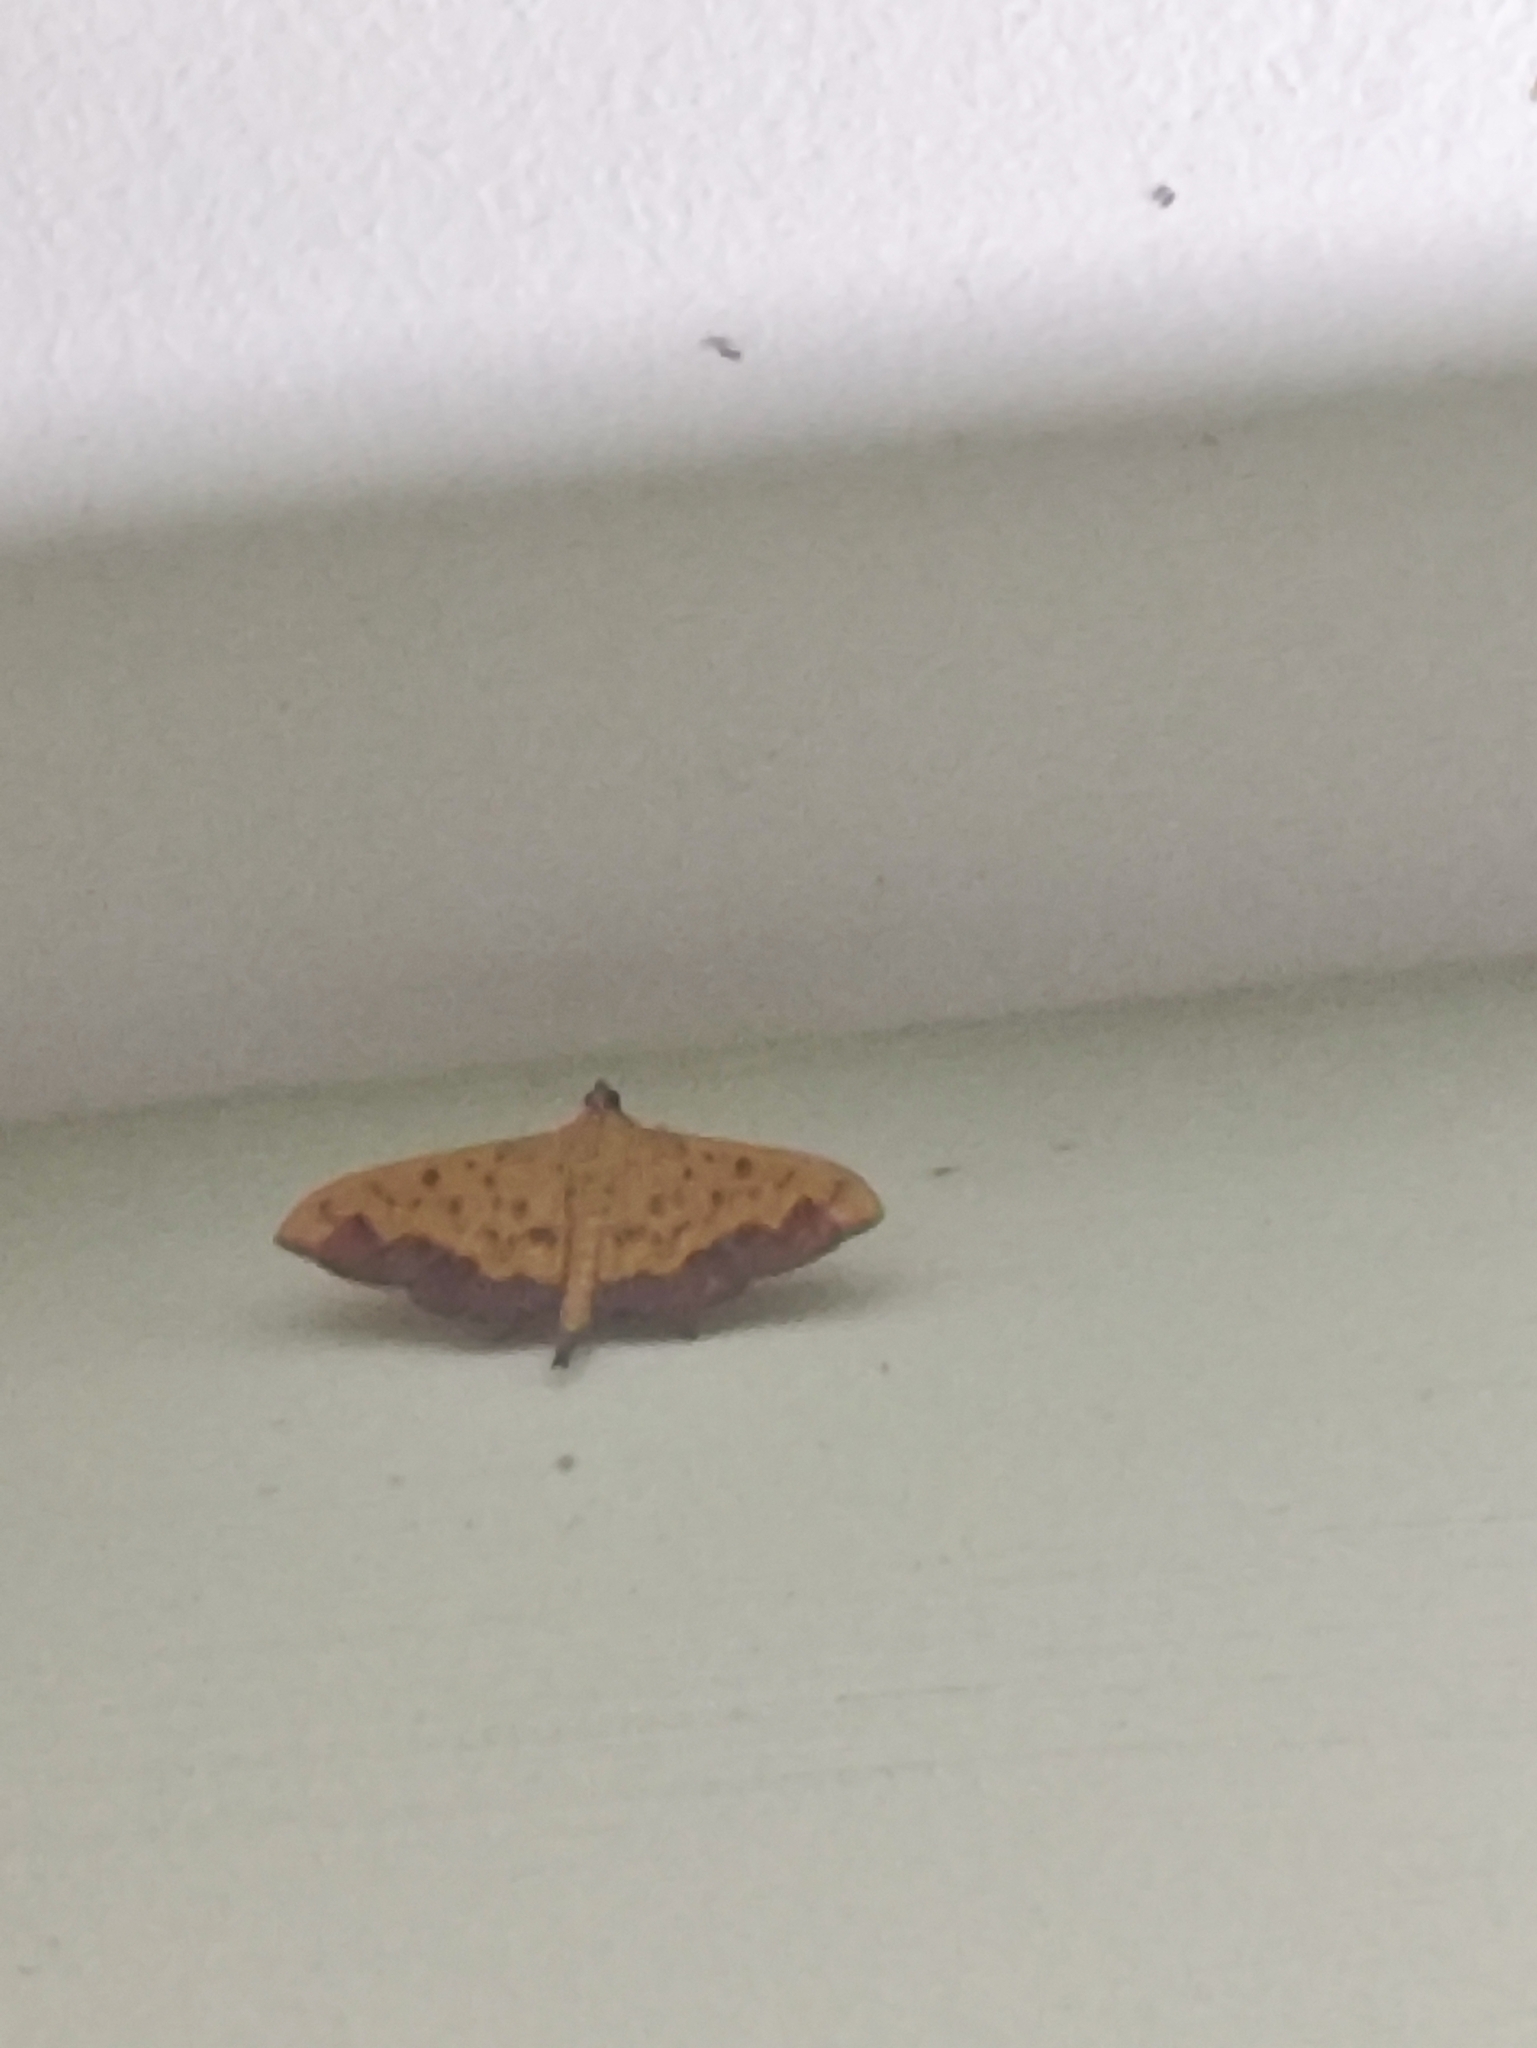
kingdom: Animalia
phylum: Arthropoda
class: Insecta
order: Lepidoptera
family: Crambidae
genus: Botyodes
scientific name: Botyodes asialis
